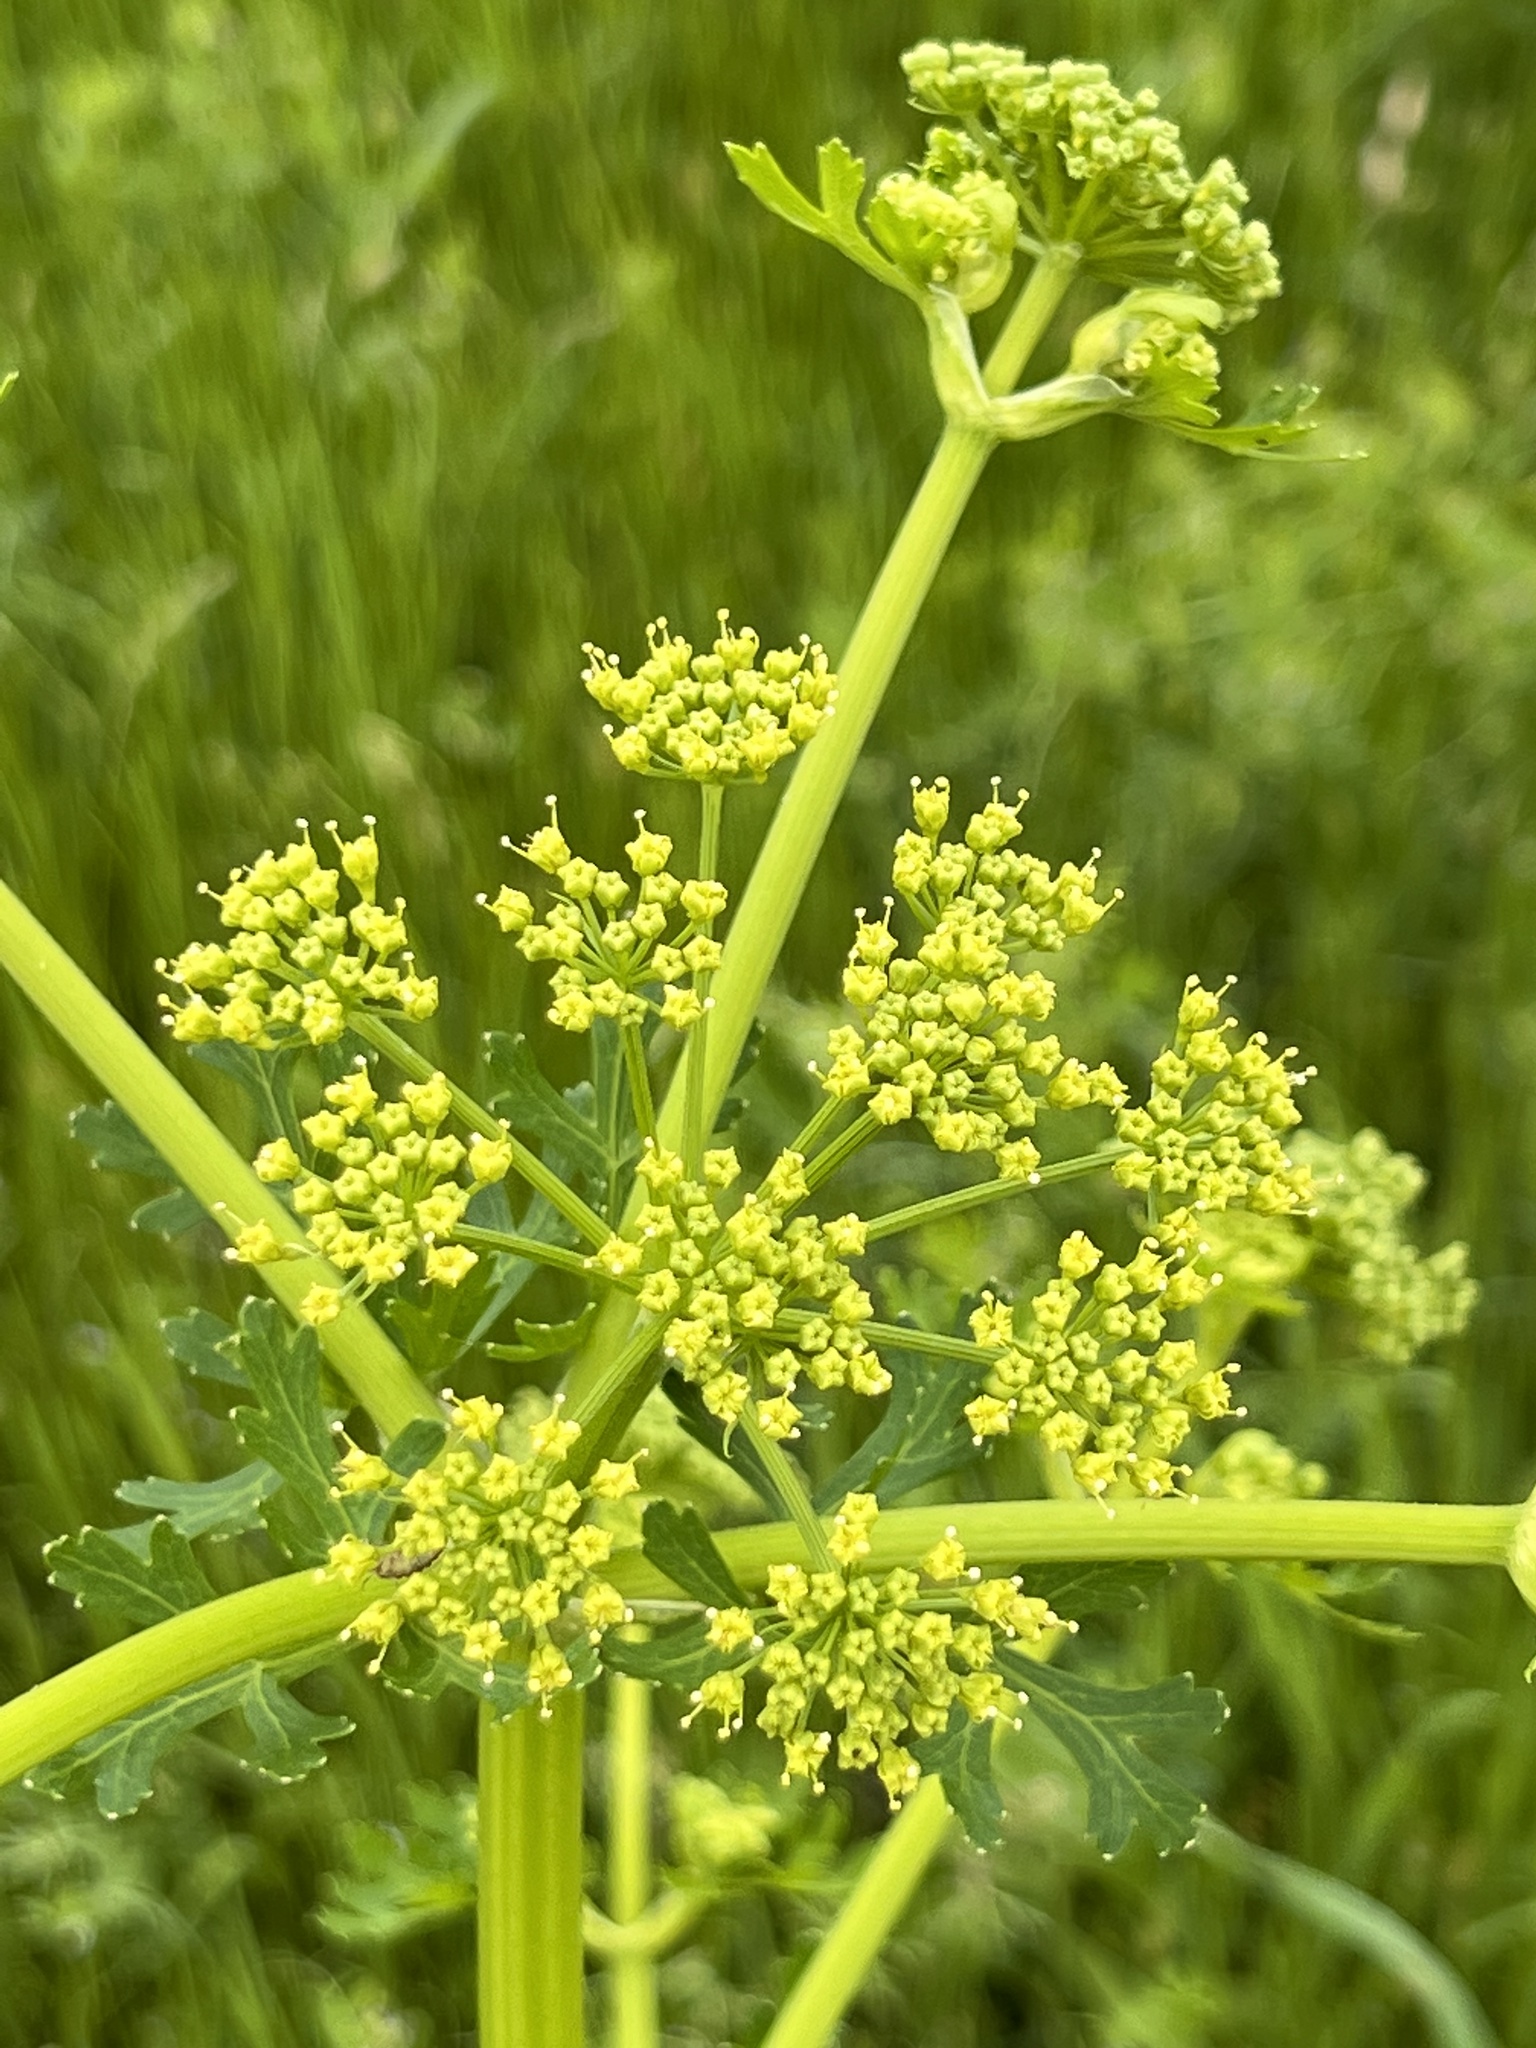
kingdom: Plantae
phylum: Tracheophyta
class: Magnoliopsida
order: Apiales
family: Apiaceae
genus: Polytaenia
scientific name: Polytaenia texana
